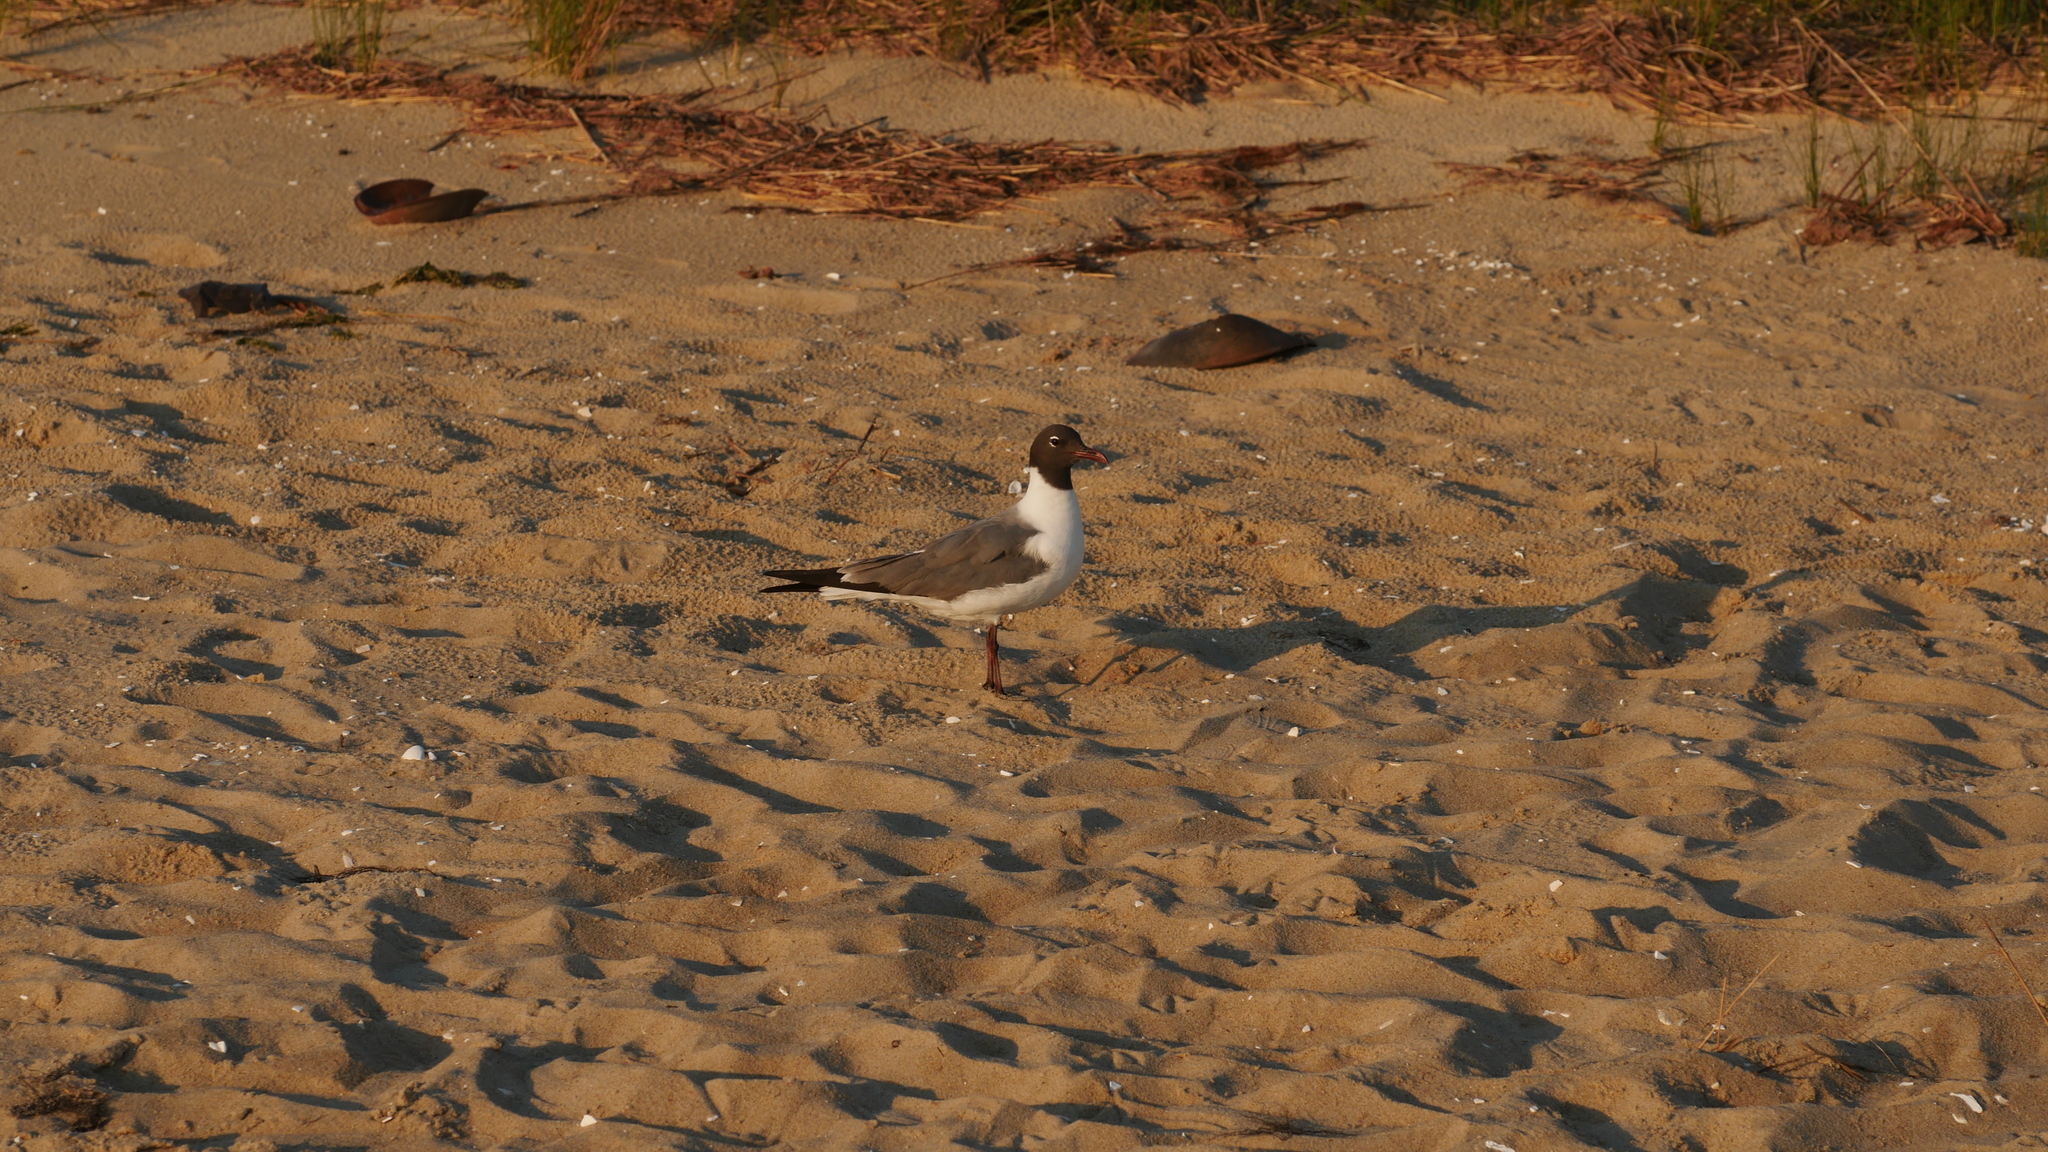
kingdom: Animalia
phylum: Chordata
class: Aves
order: Charadriiformes
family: Laridae
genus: Leucophaeus
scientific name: Leucophaeus atricilla
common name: Laughing gull
